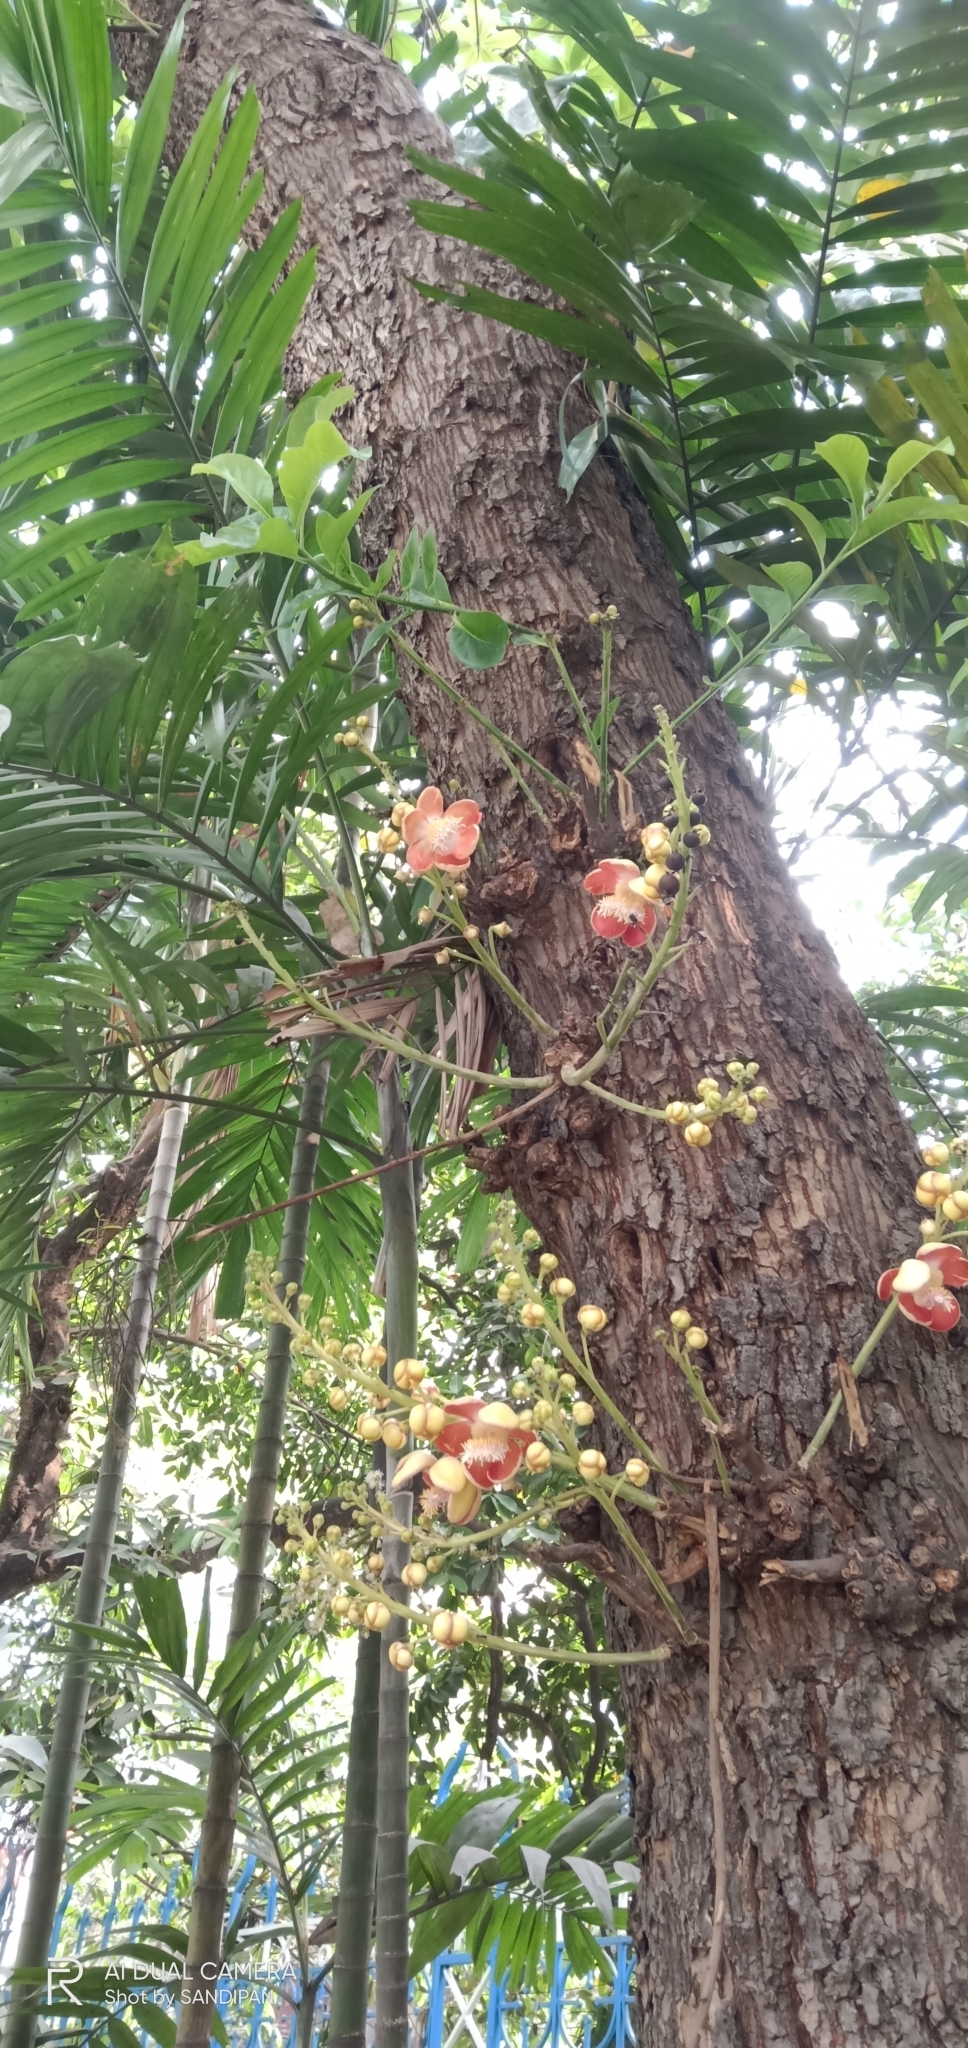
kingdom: Plantae
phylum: Tracheophyta
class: Magnoliopsida
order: Ericales
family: Lecythidaceae
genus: Couroupita
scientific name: Couroupita guianensis
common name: Cannonball tree
